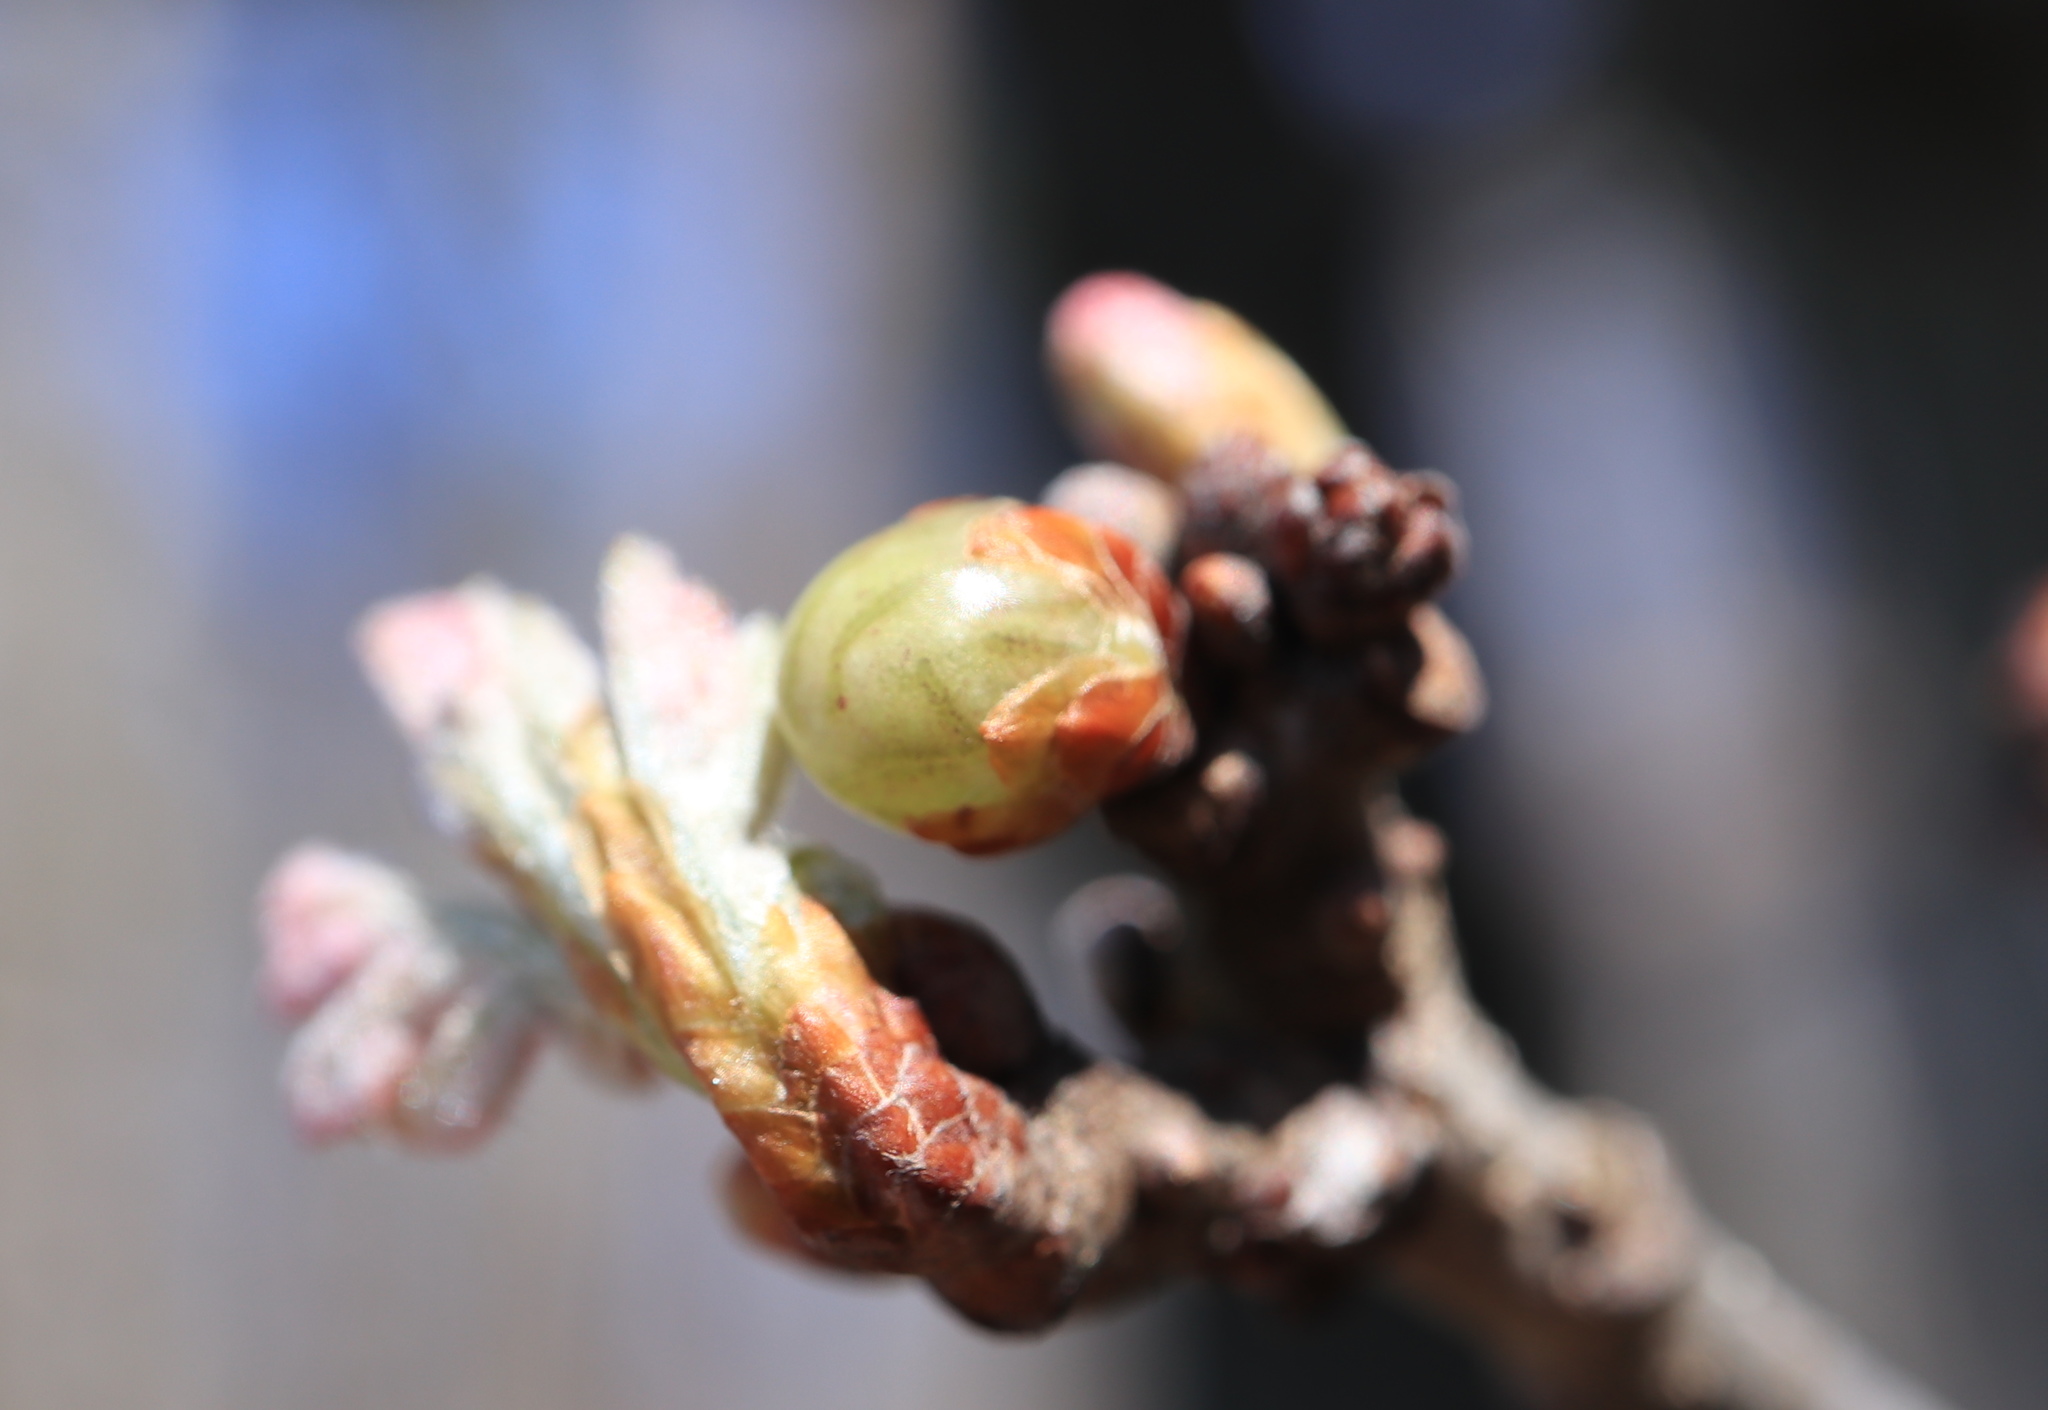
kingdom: Animalia
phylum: Arthropoda
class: Insecta
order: Hymenoptera
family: Cynipidae
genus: Neuroterus
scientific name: Neuroterus
